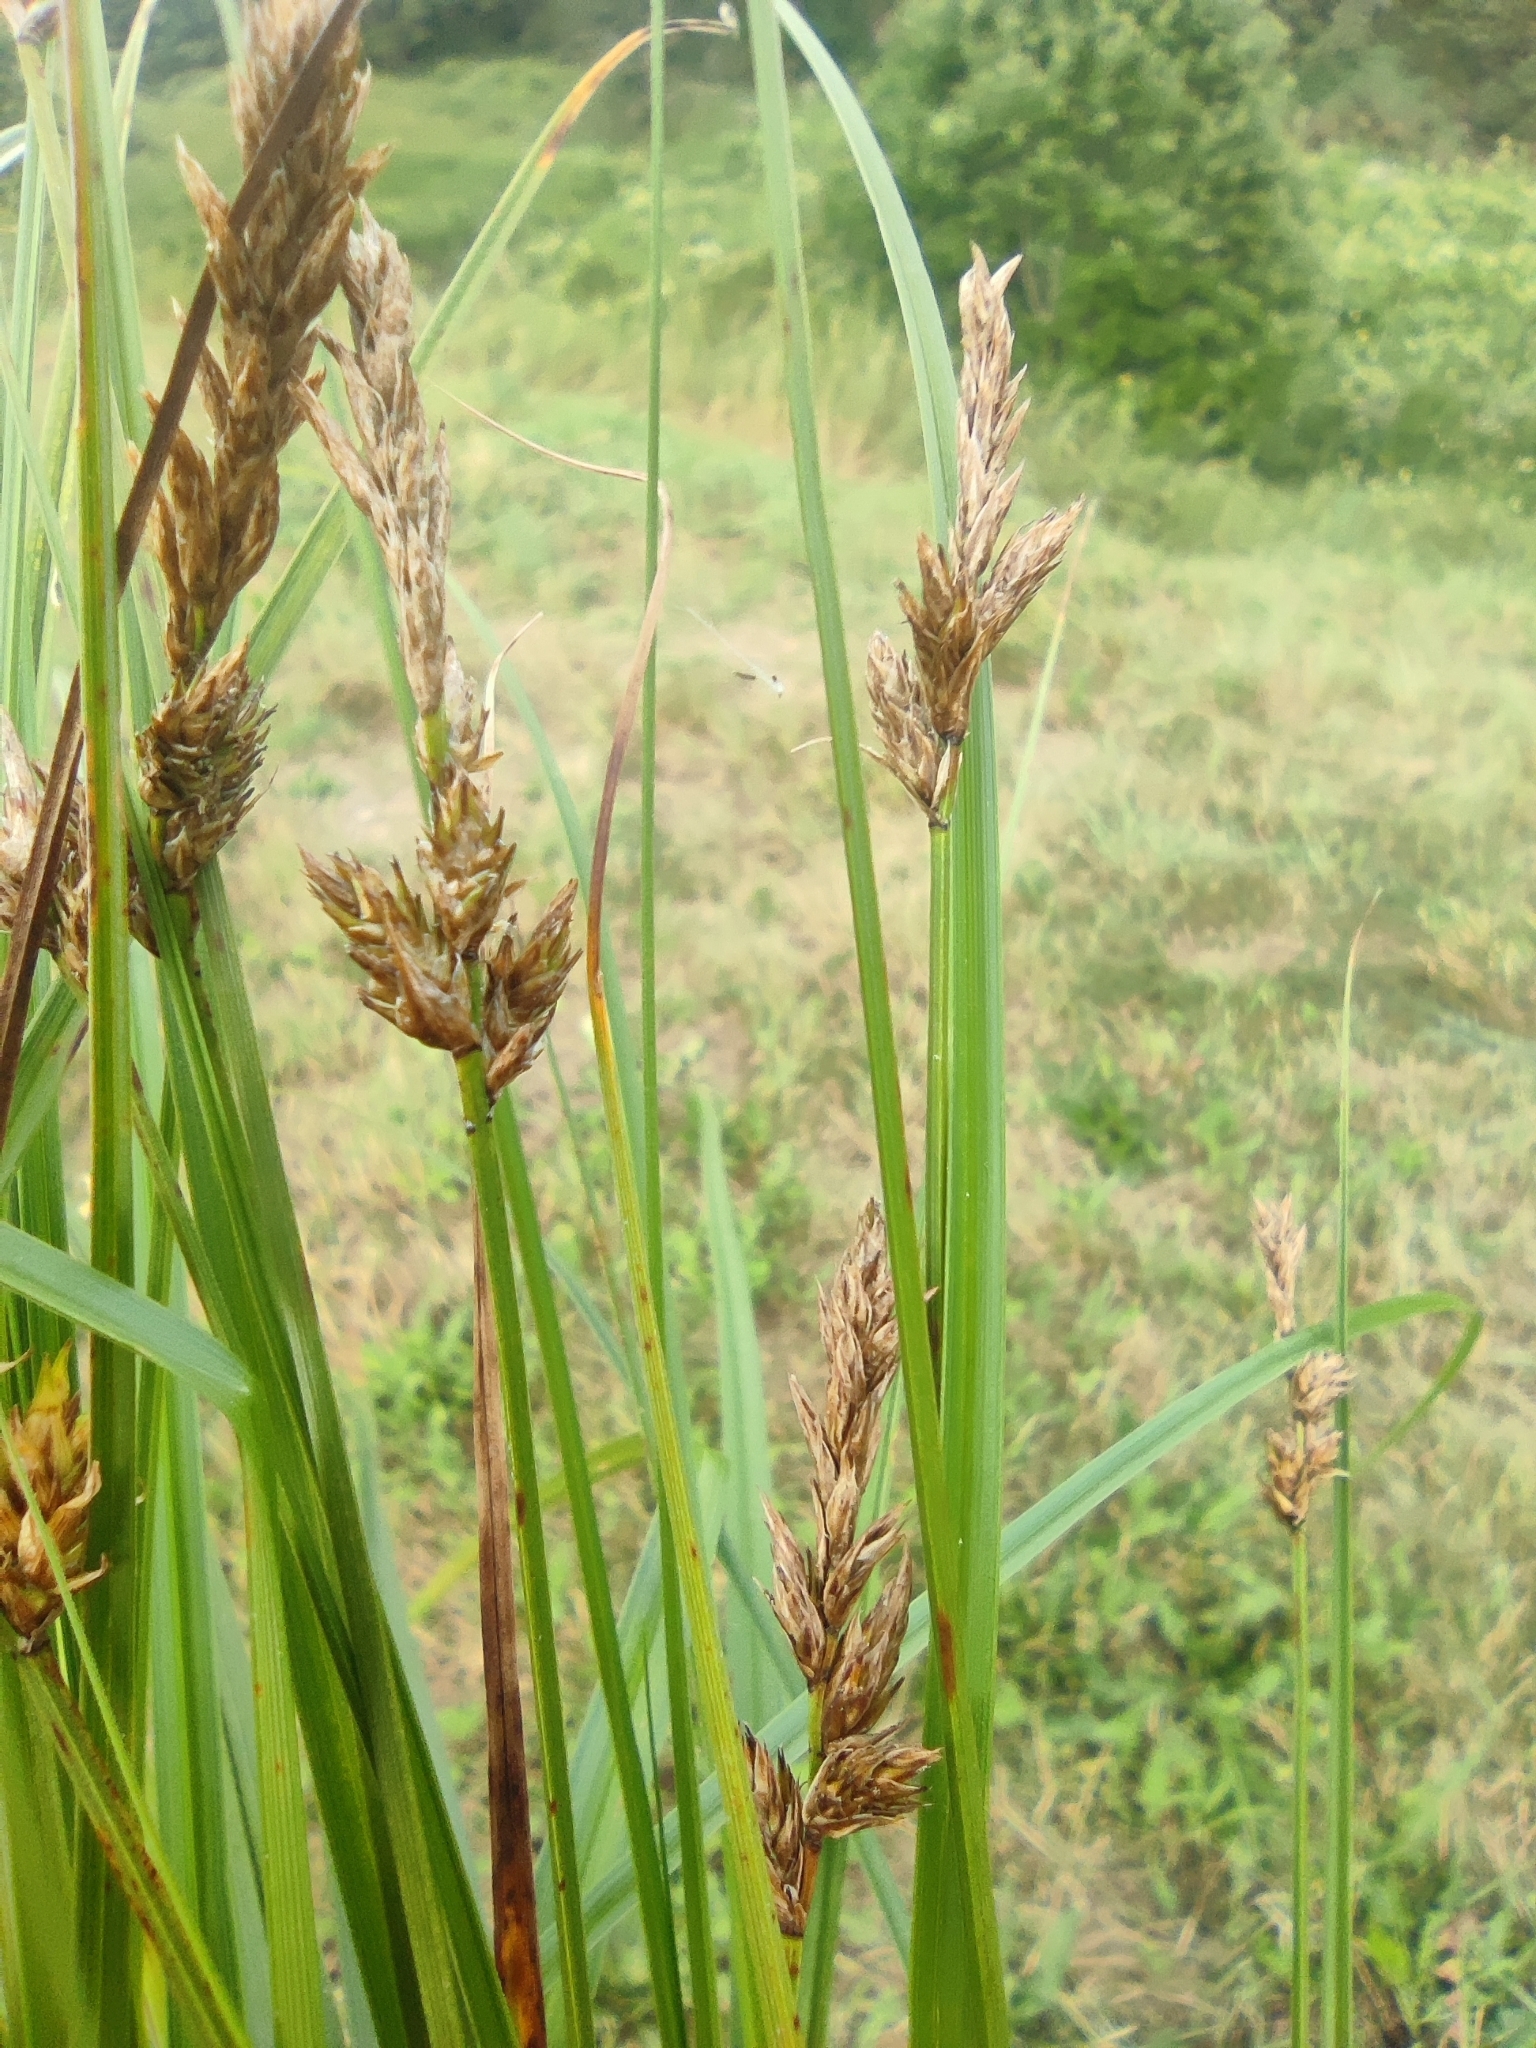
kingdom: Plantae
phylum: Tracheophyta
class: Liliopsida
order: Poales
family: Cyperaceae
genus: Carex
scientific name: Carex disticha
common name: Brown sedge
